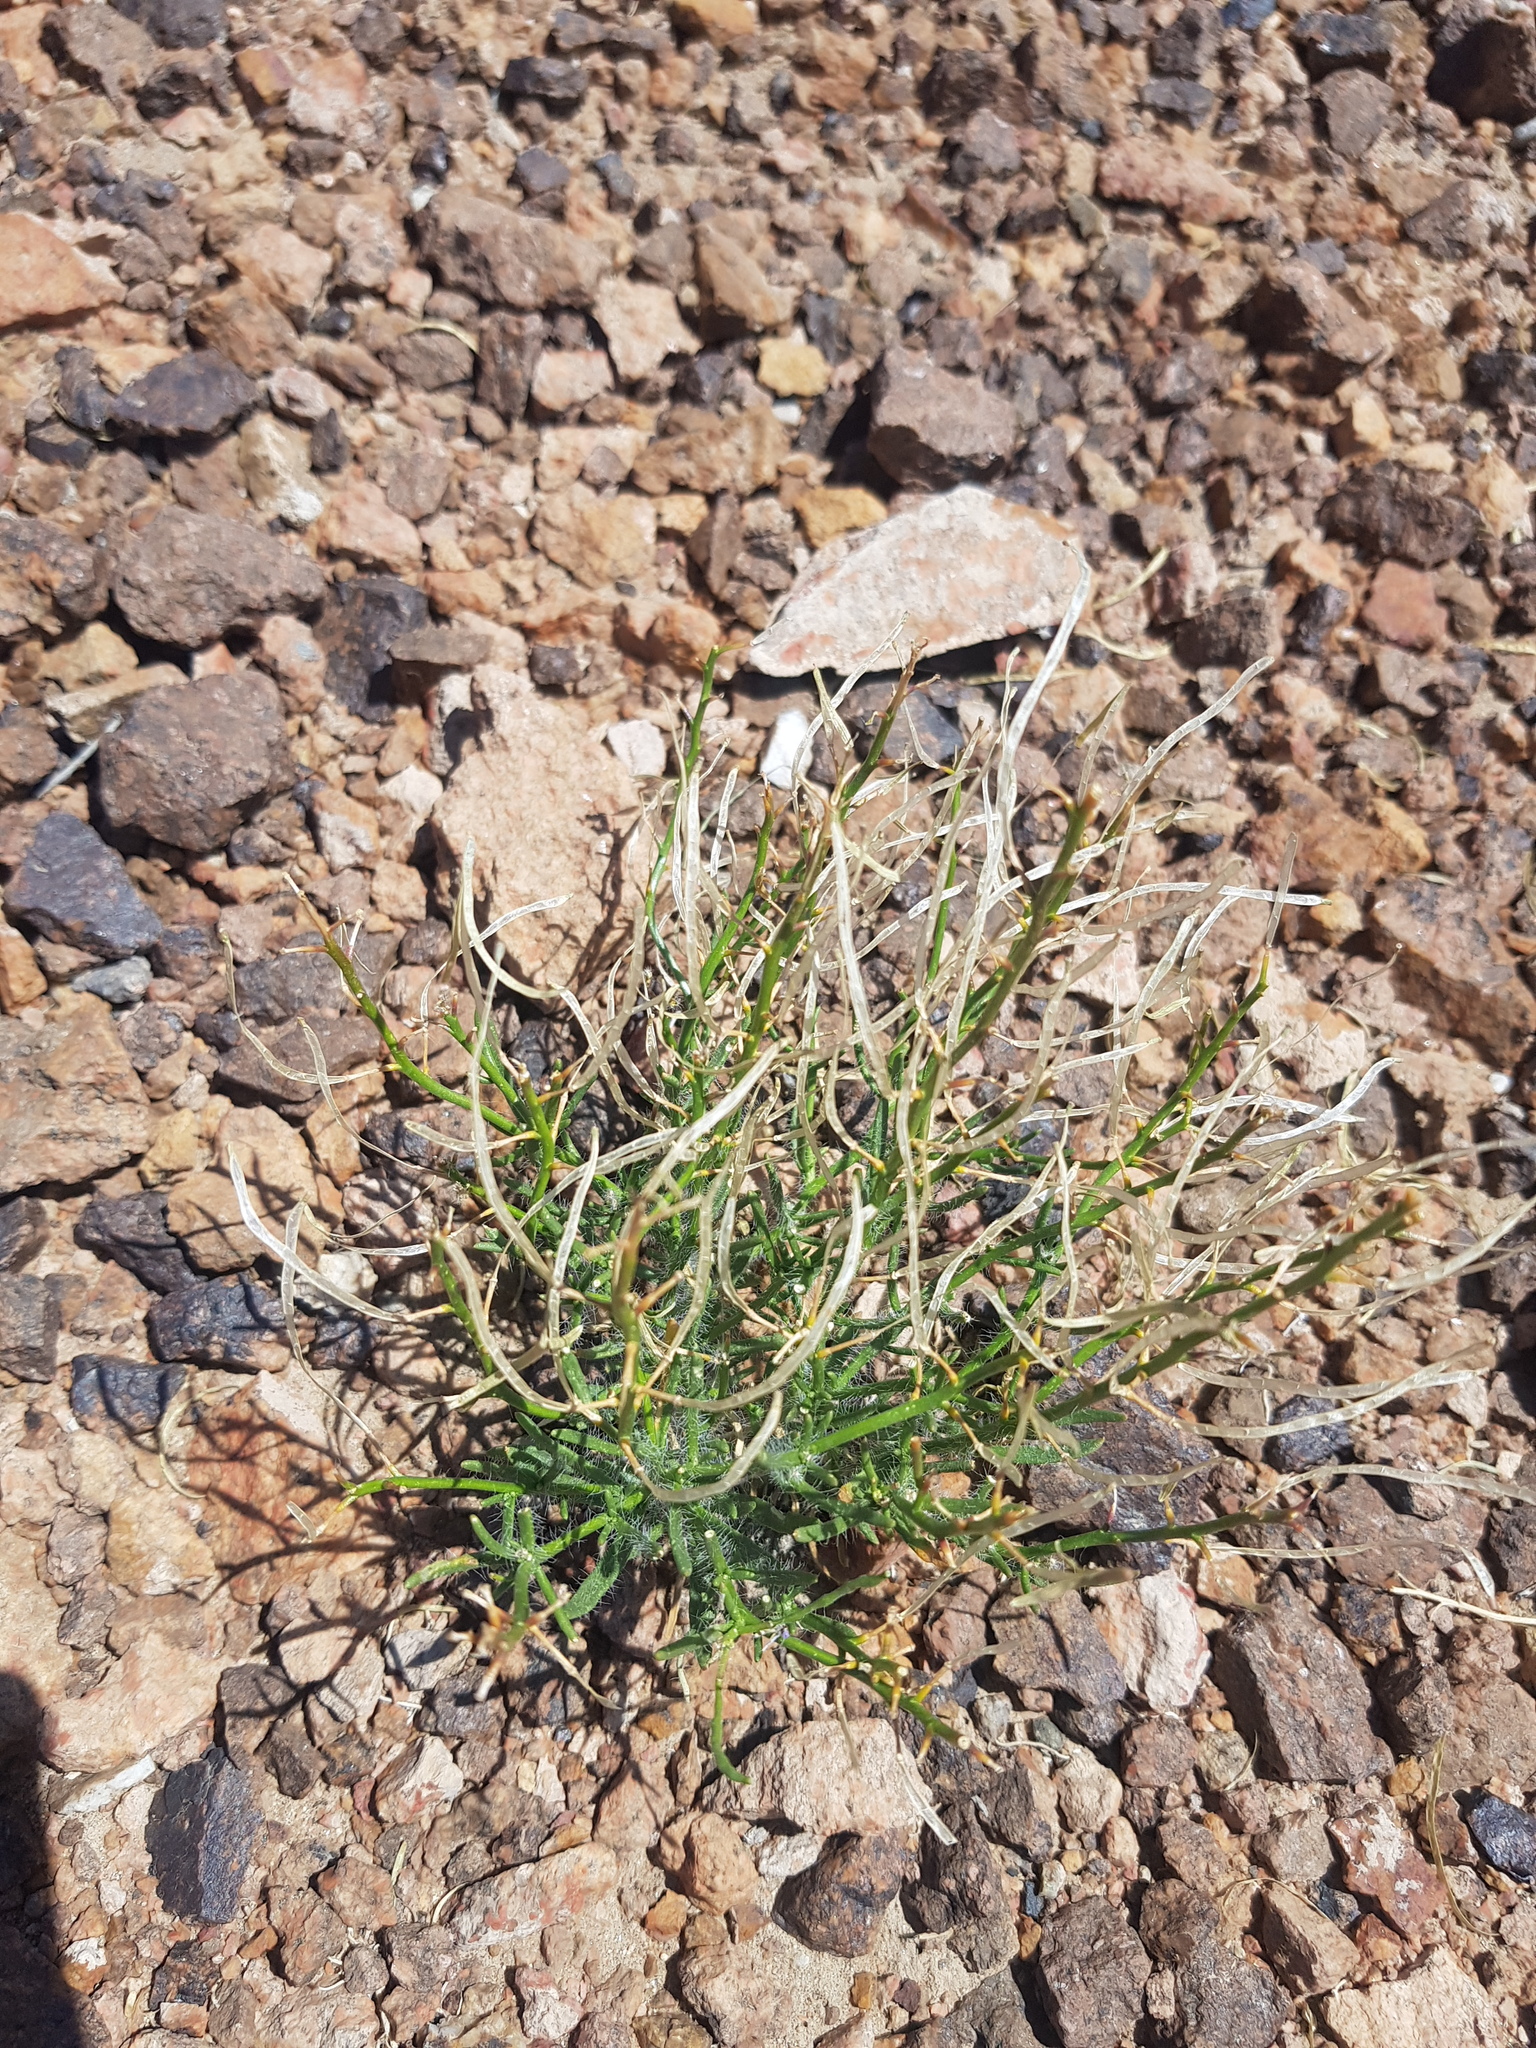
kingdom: Plantae
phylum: Tracheophyta
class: Magnoliopsida
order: Brassicales
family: Brassicaceae
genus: Dontostemon
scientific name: Dontostemon elegans
